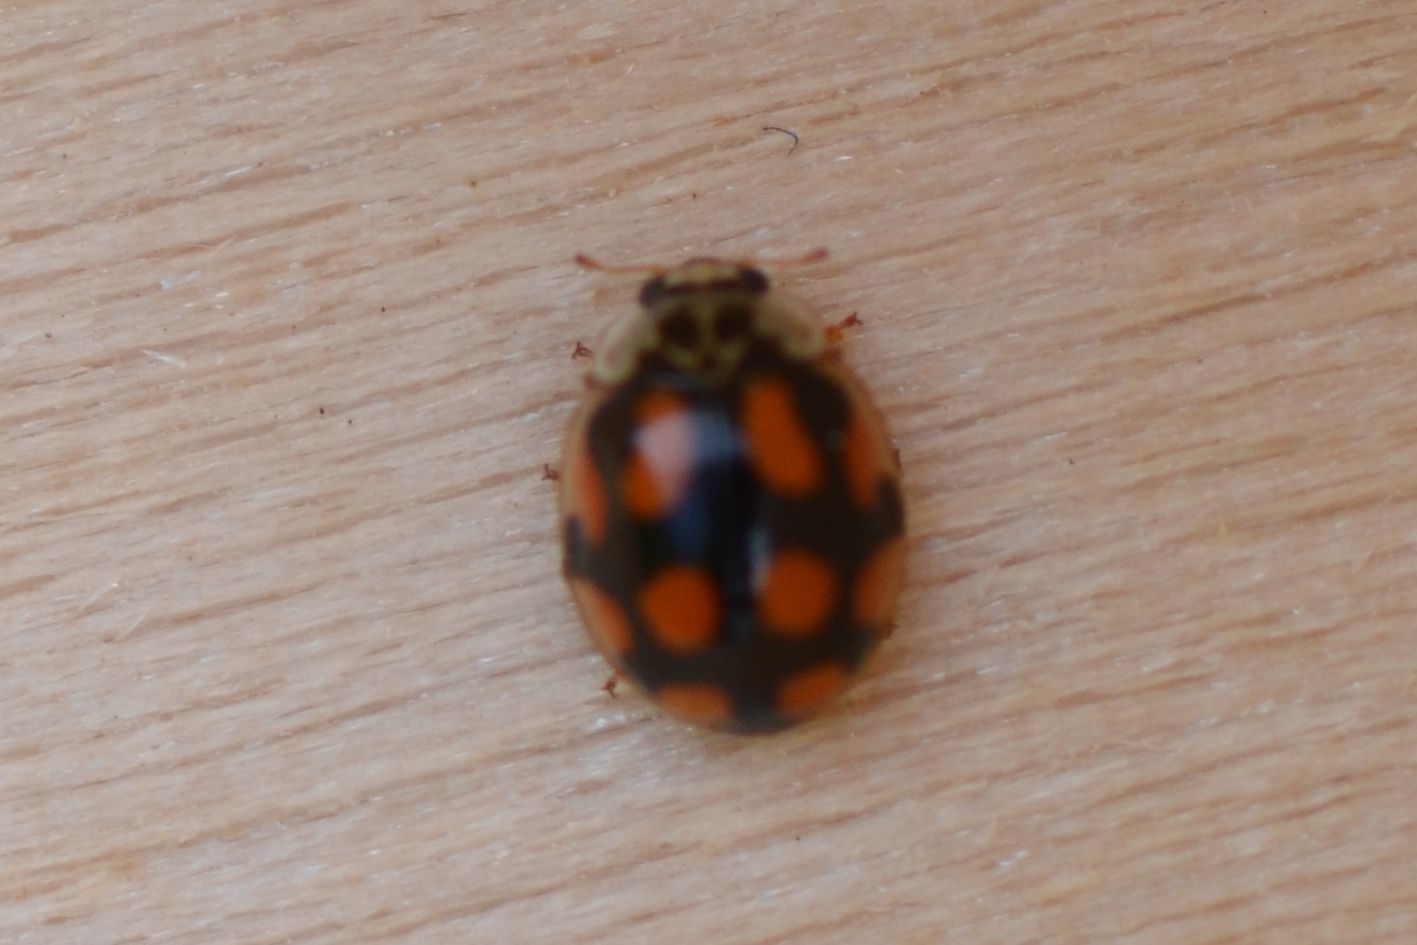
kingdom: Animalia
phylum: Arthropoda
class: Insecta
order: Coleoptera
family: Coccinellidae
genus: Adalia
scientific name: Adalia decempunctata
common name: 10-spot ladybird
